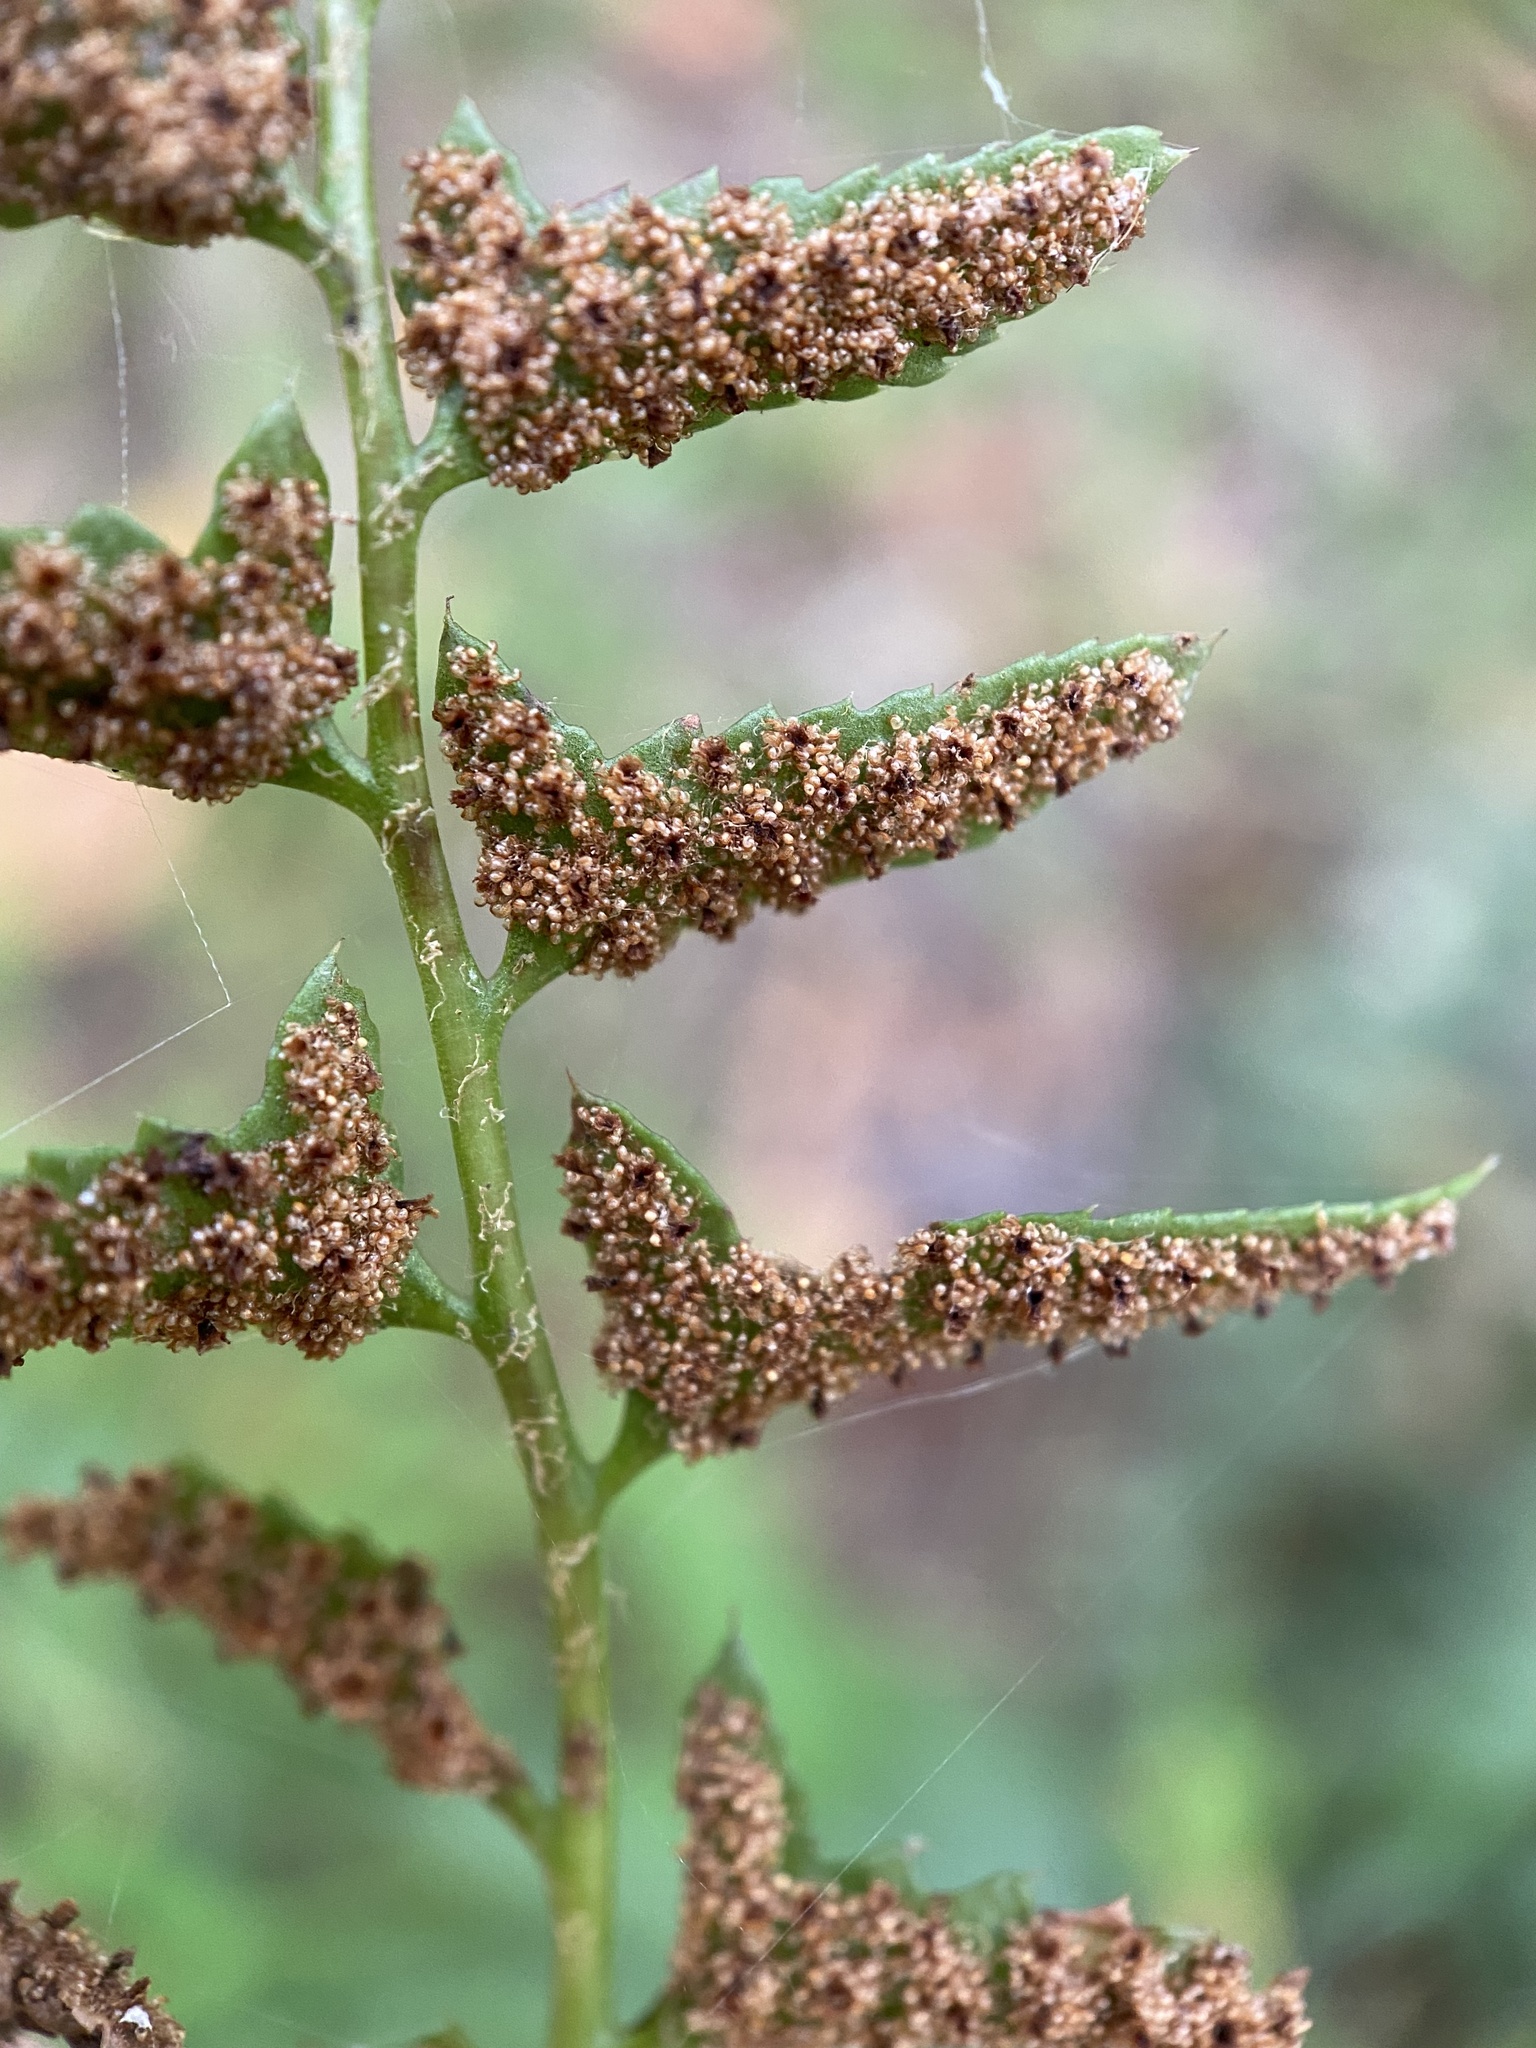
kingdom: Plantae
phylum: Tracheophyta
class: Polypodiopsida
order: Polypodiales
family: Dryopteridaceae
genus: Polystichum
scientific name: Polystichum acrostichoides
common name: Christmas fern
